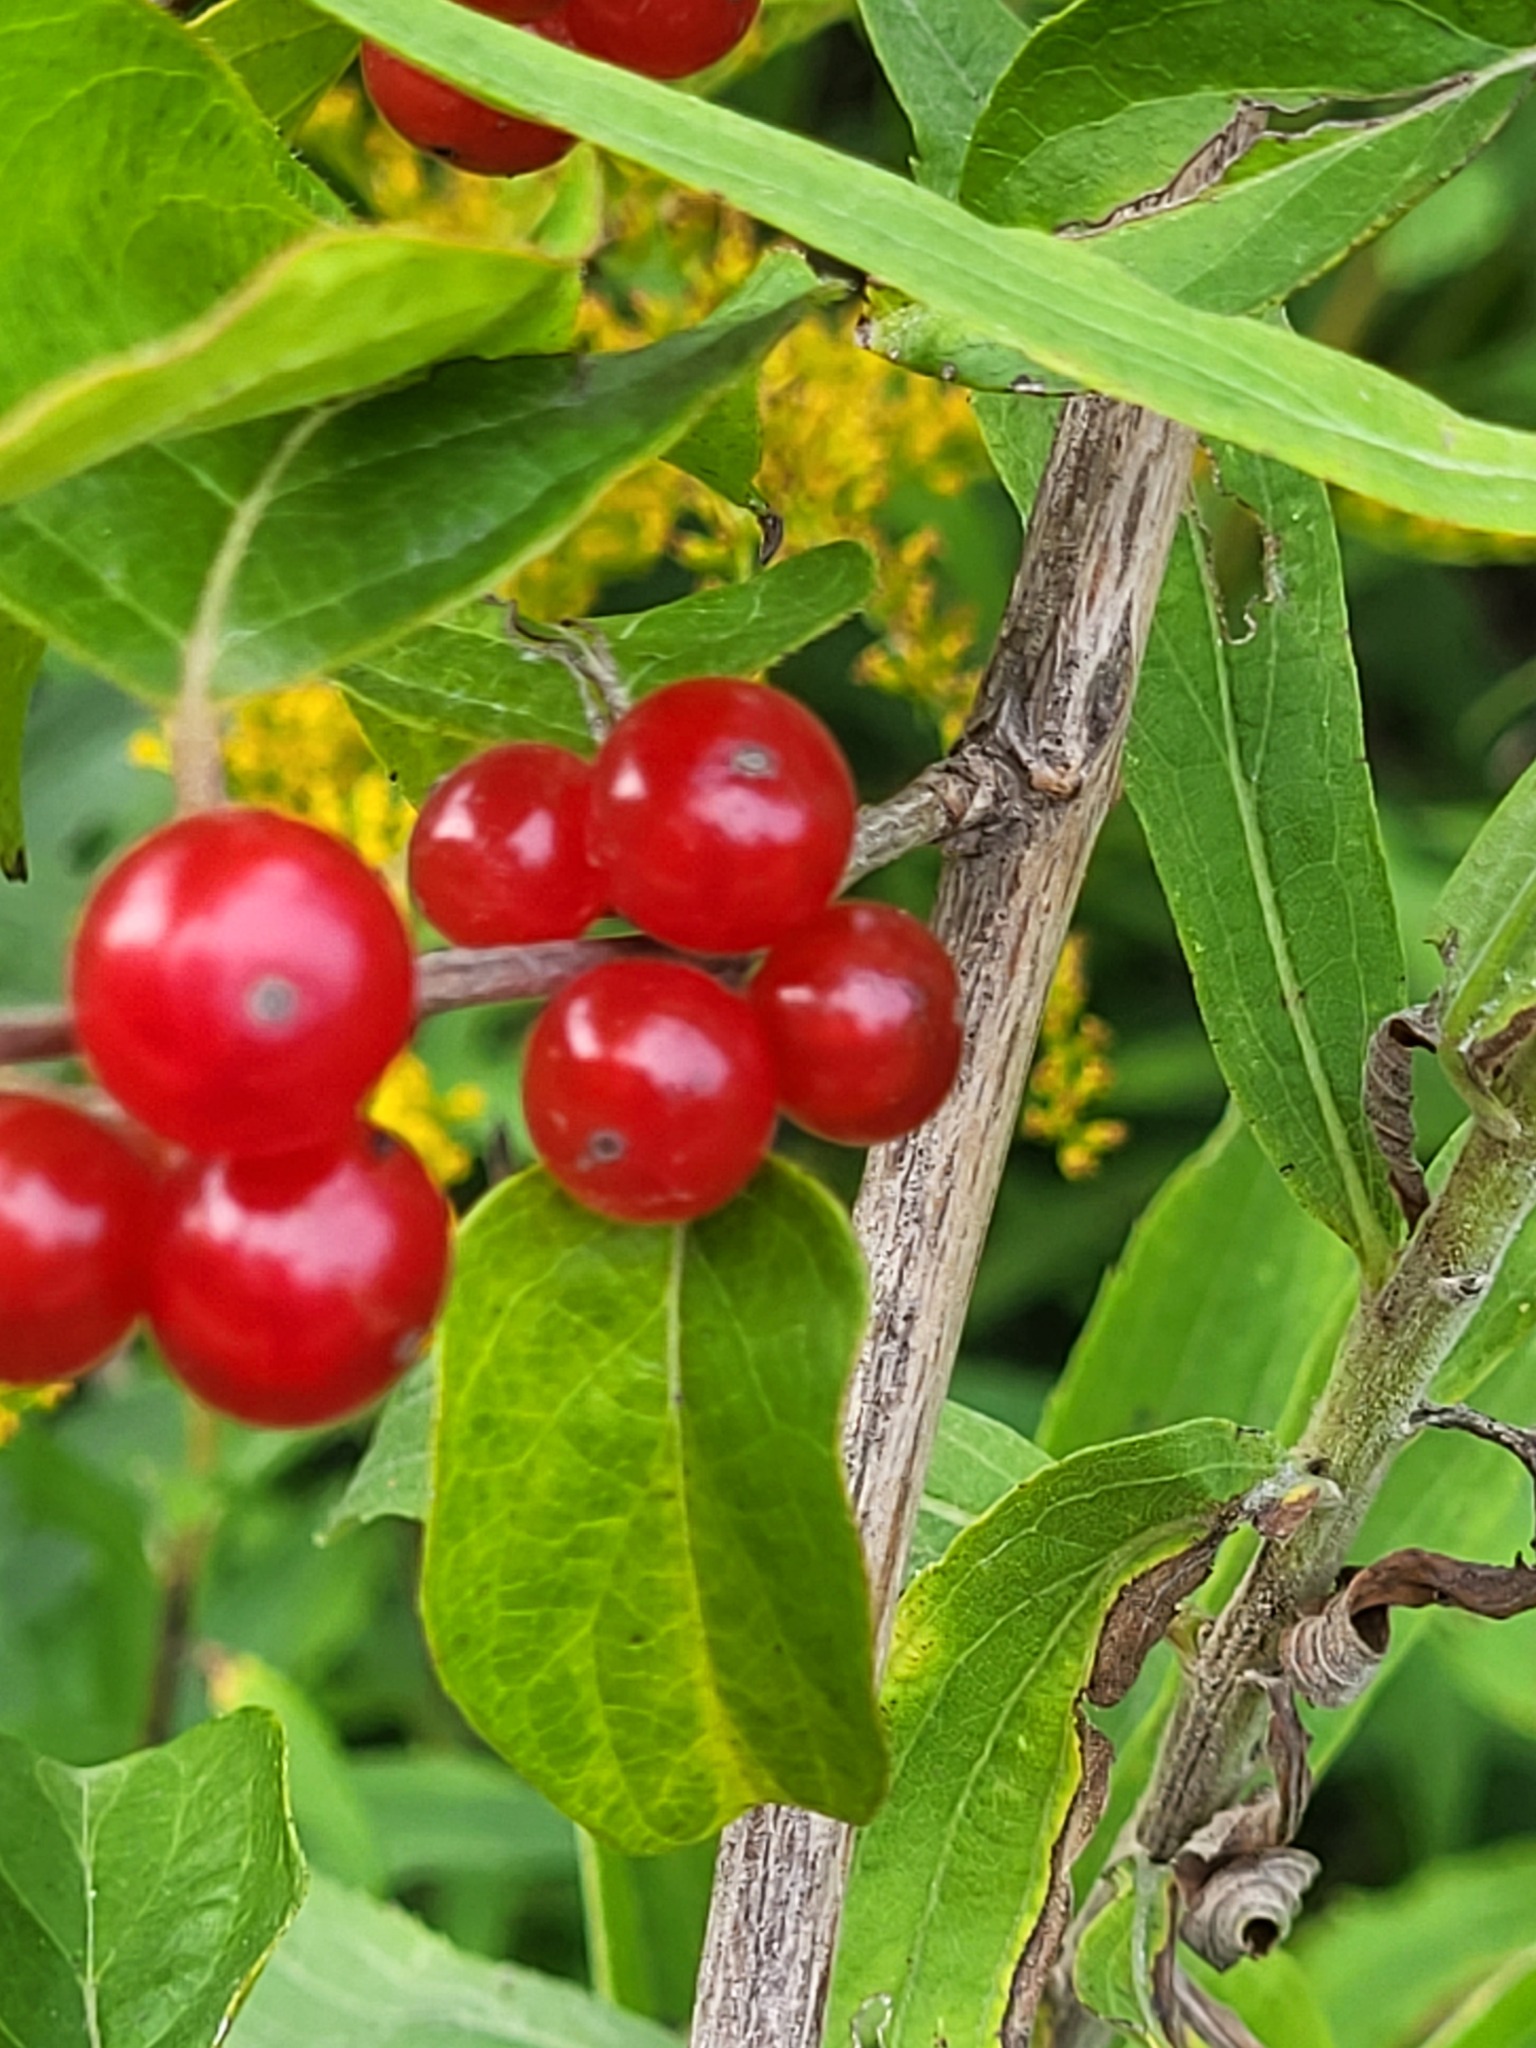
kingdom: Plantae
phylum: Tracheophyta
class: Magnoliopsida
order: Dipsacales
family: Caprifoliaceae
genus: Lonicera
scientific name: Lonicera maackii
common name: Amur honeysuckle
